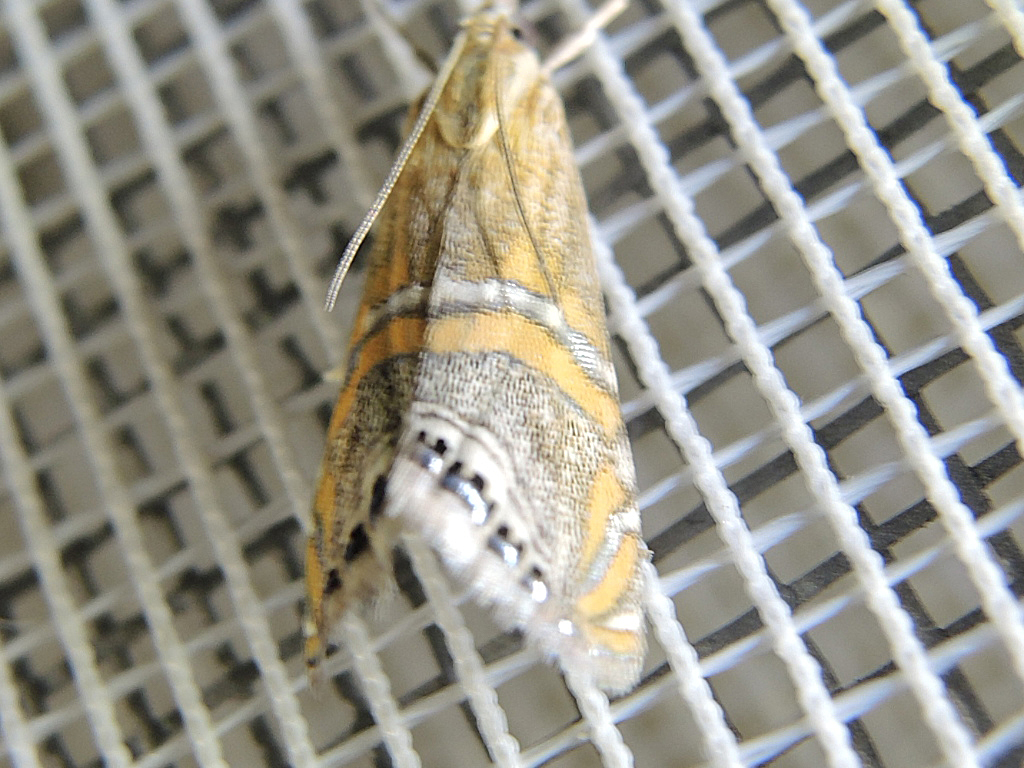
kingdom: Animalia
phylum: Arthropoda
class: Insecta
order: Lepidoptera
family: Crambidae
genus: Euchromius
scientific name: Euchromius bella
